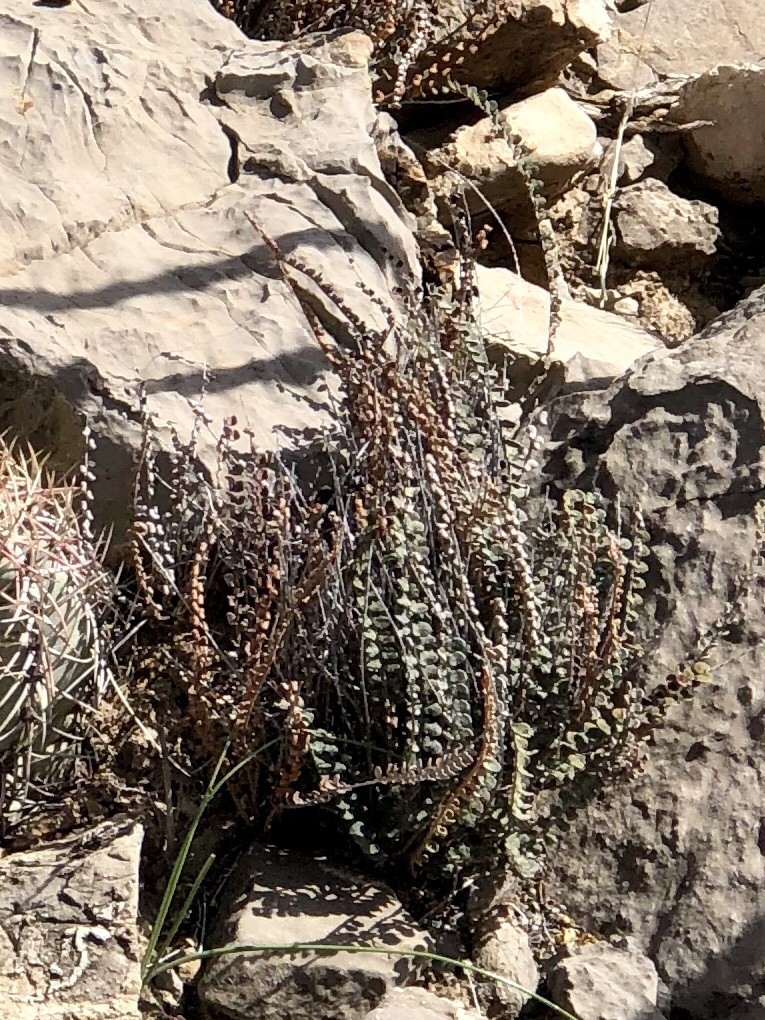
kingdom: Plantae
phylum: Tracheophyta
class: Polypodiopsida
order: Polypodiales
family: Pteridaceae
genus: Astrolepis
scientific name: Astrolepis cochisensis
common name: Scaly cloak fern
